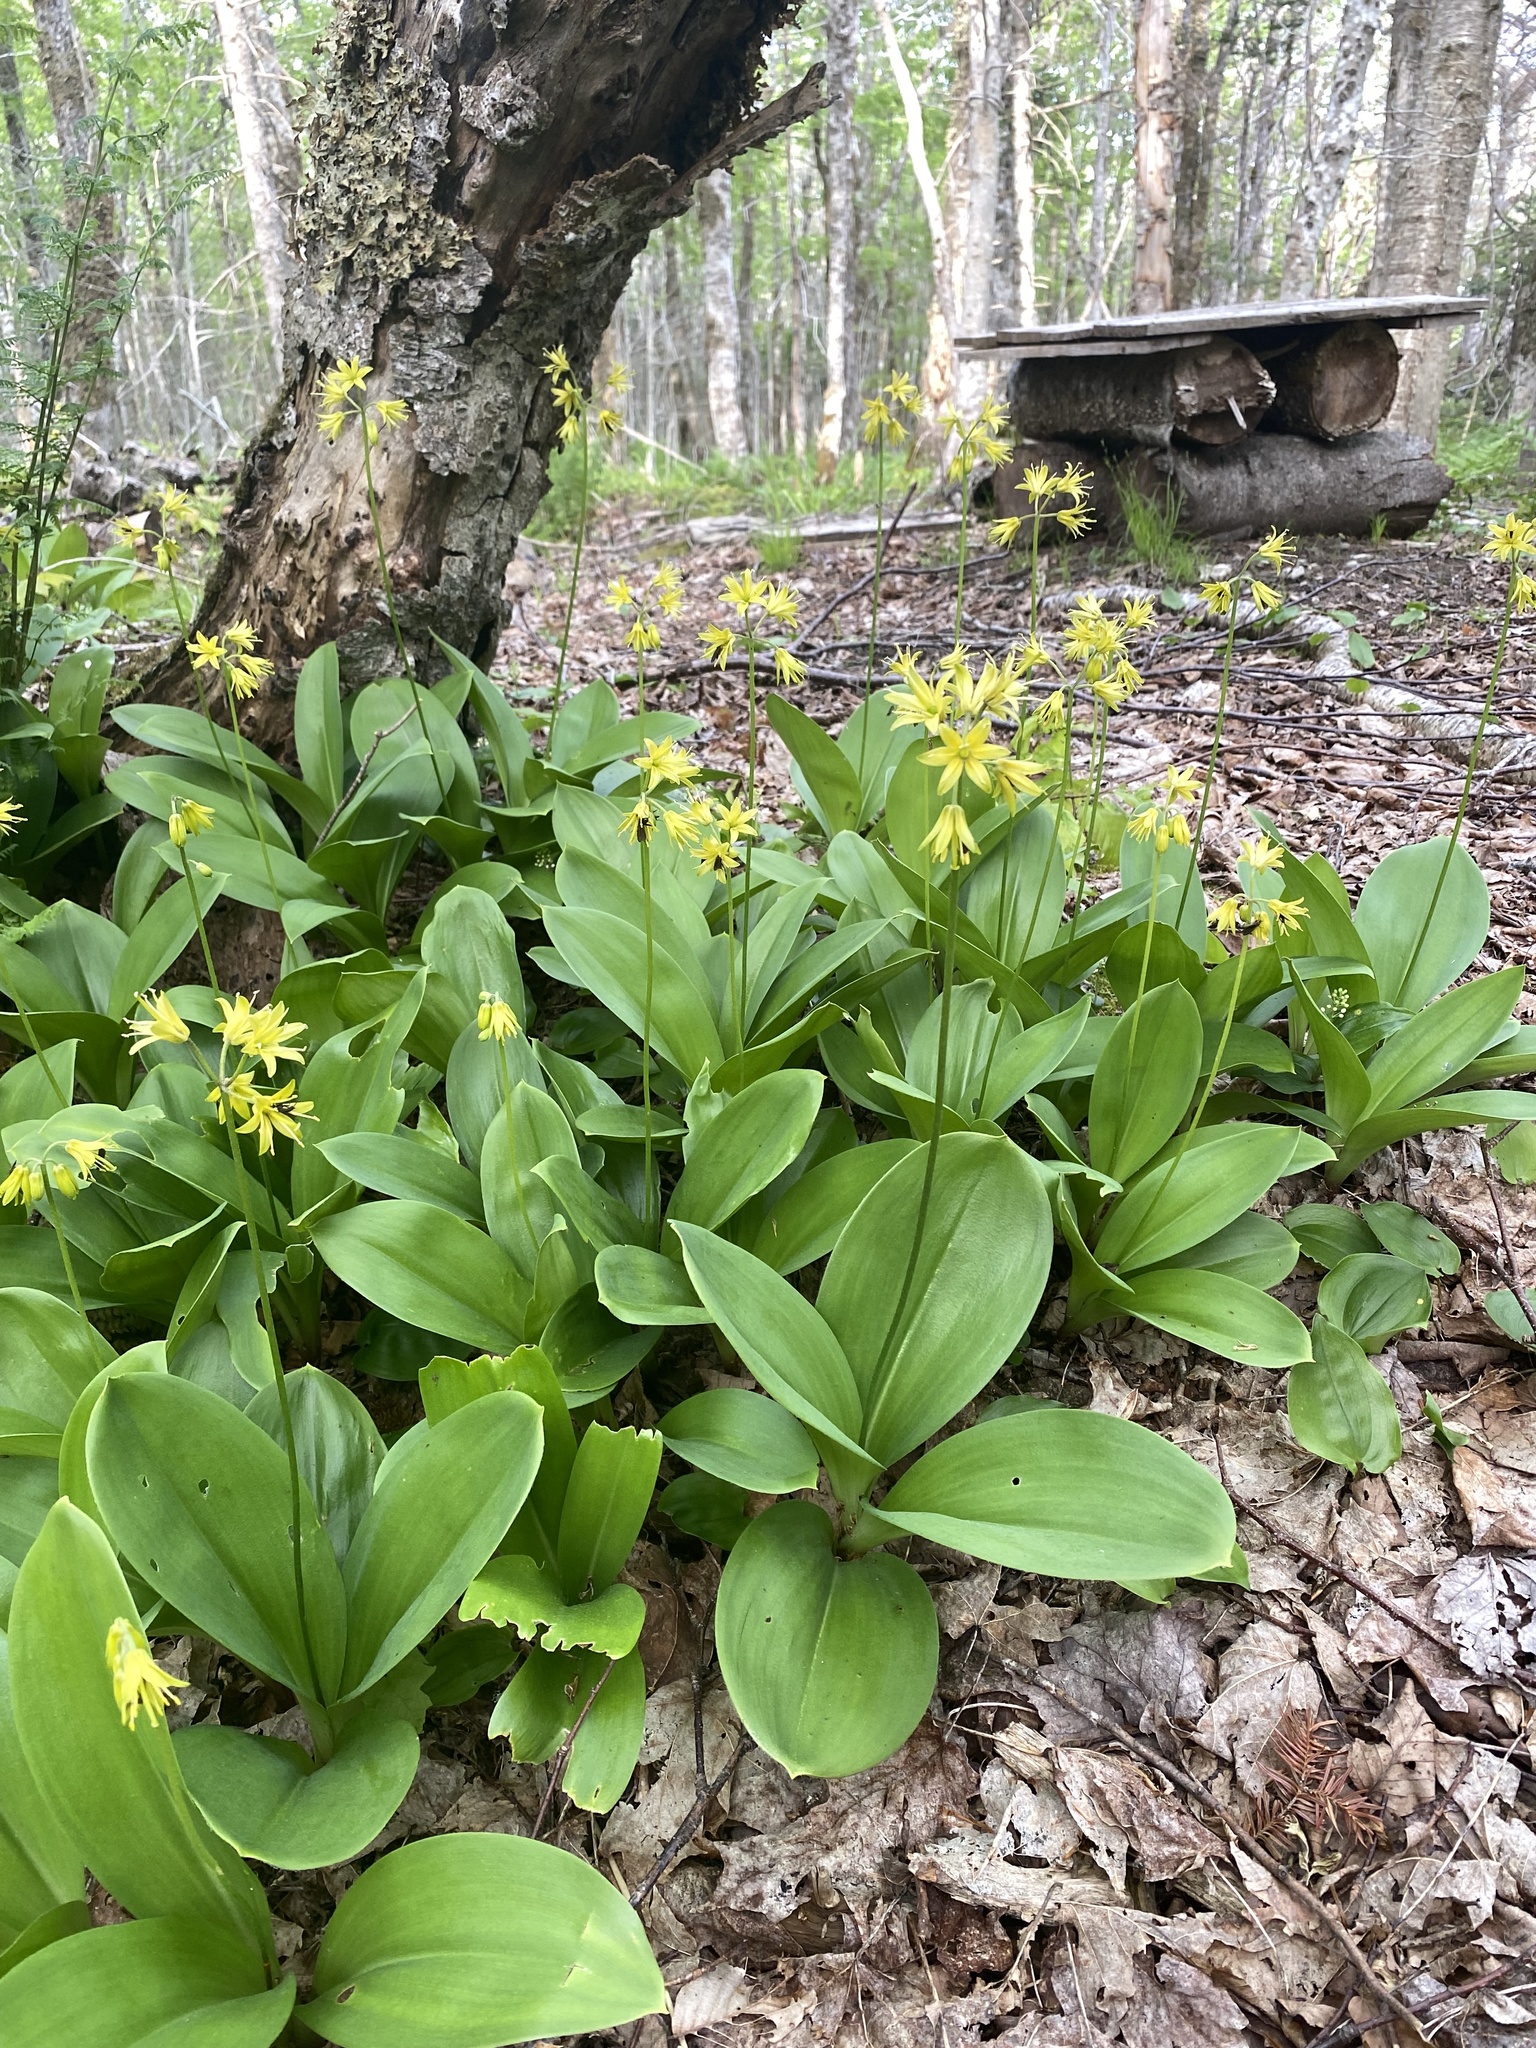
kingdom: Plantae
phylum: Tracheophyta
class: Liliopsida
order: Liliales
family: Liliaceae
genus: Clintonia
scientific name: Clintonia borealis
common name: Yellow clintonia
